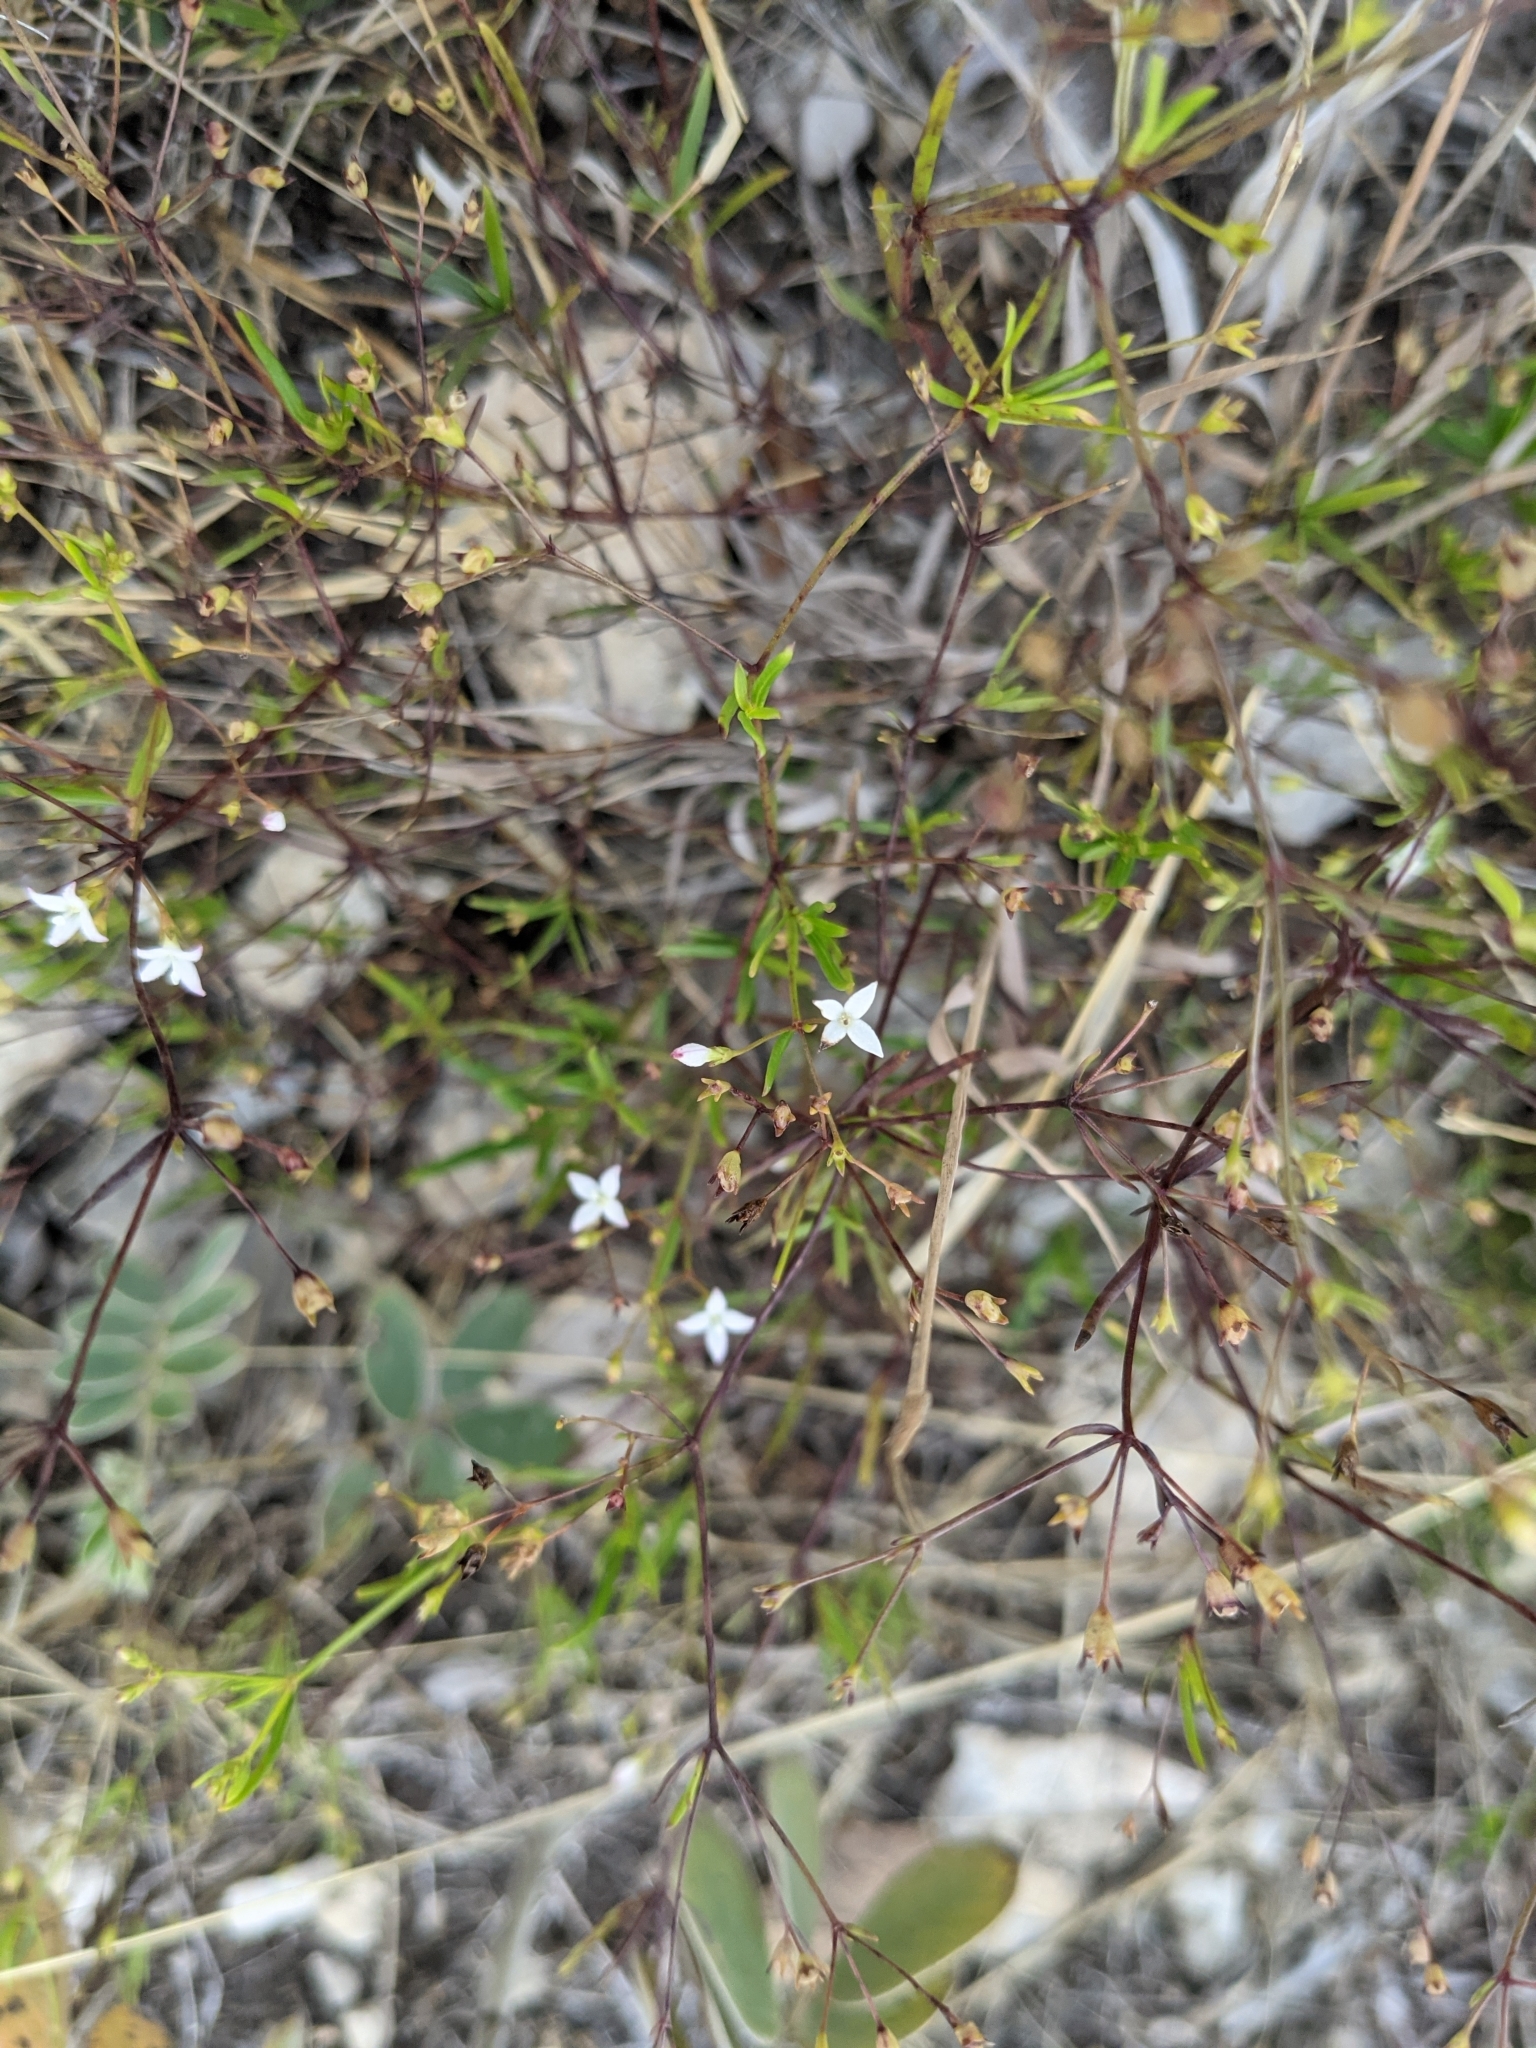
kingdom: Plantae
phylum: Tracheophyta
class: Magnoliopsida
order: Gentianales
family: Rubiaceae
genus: Stenaria
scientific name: Stenaria nigricans
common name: Diamondflowers
